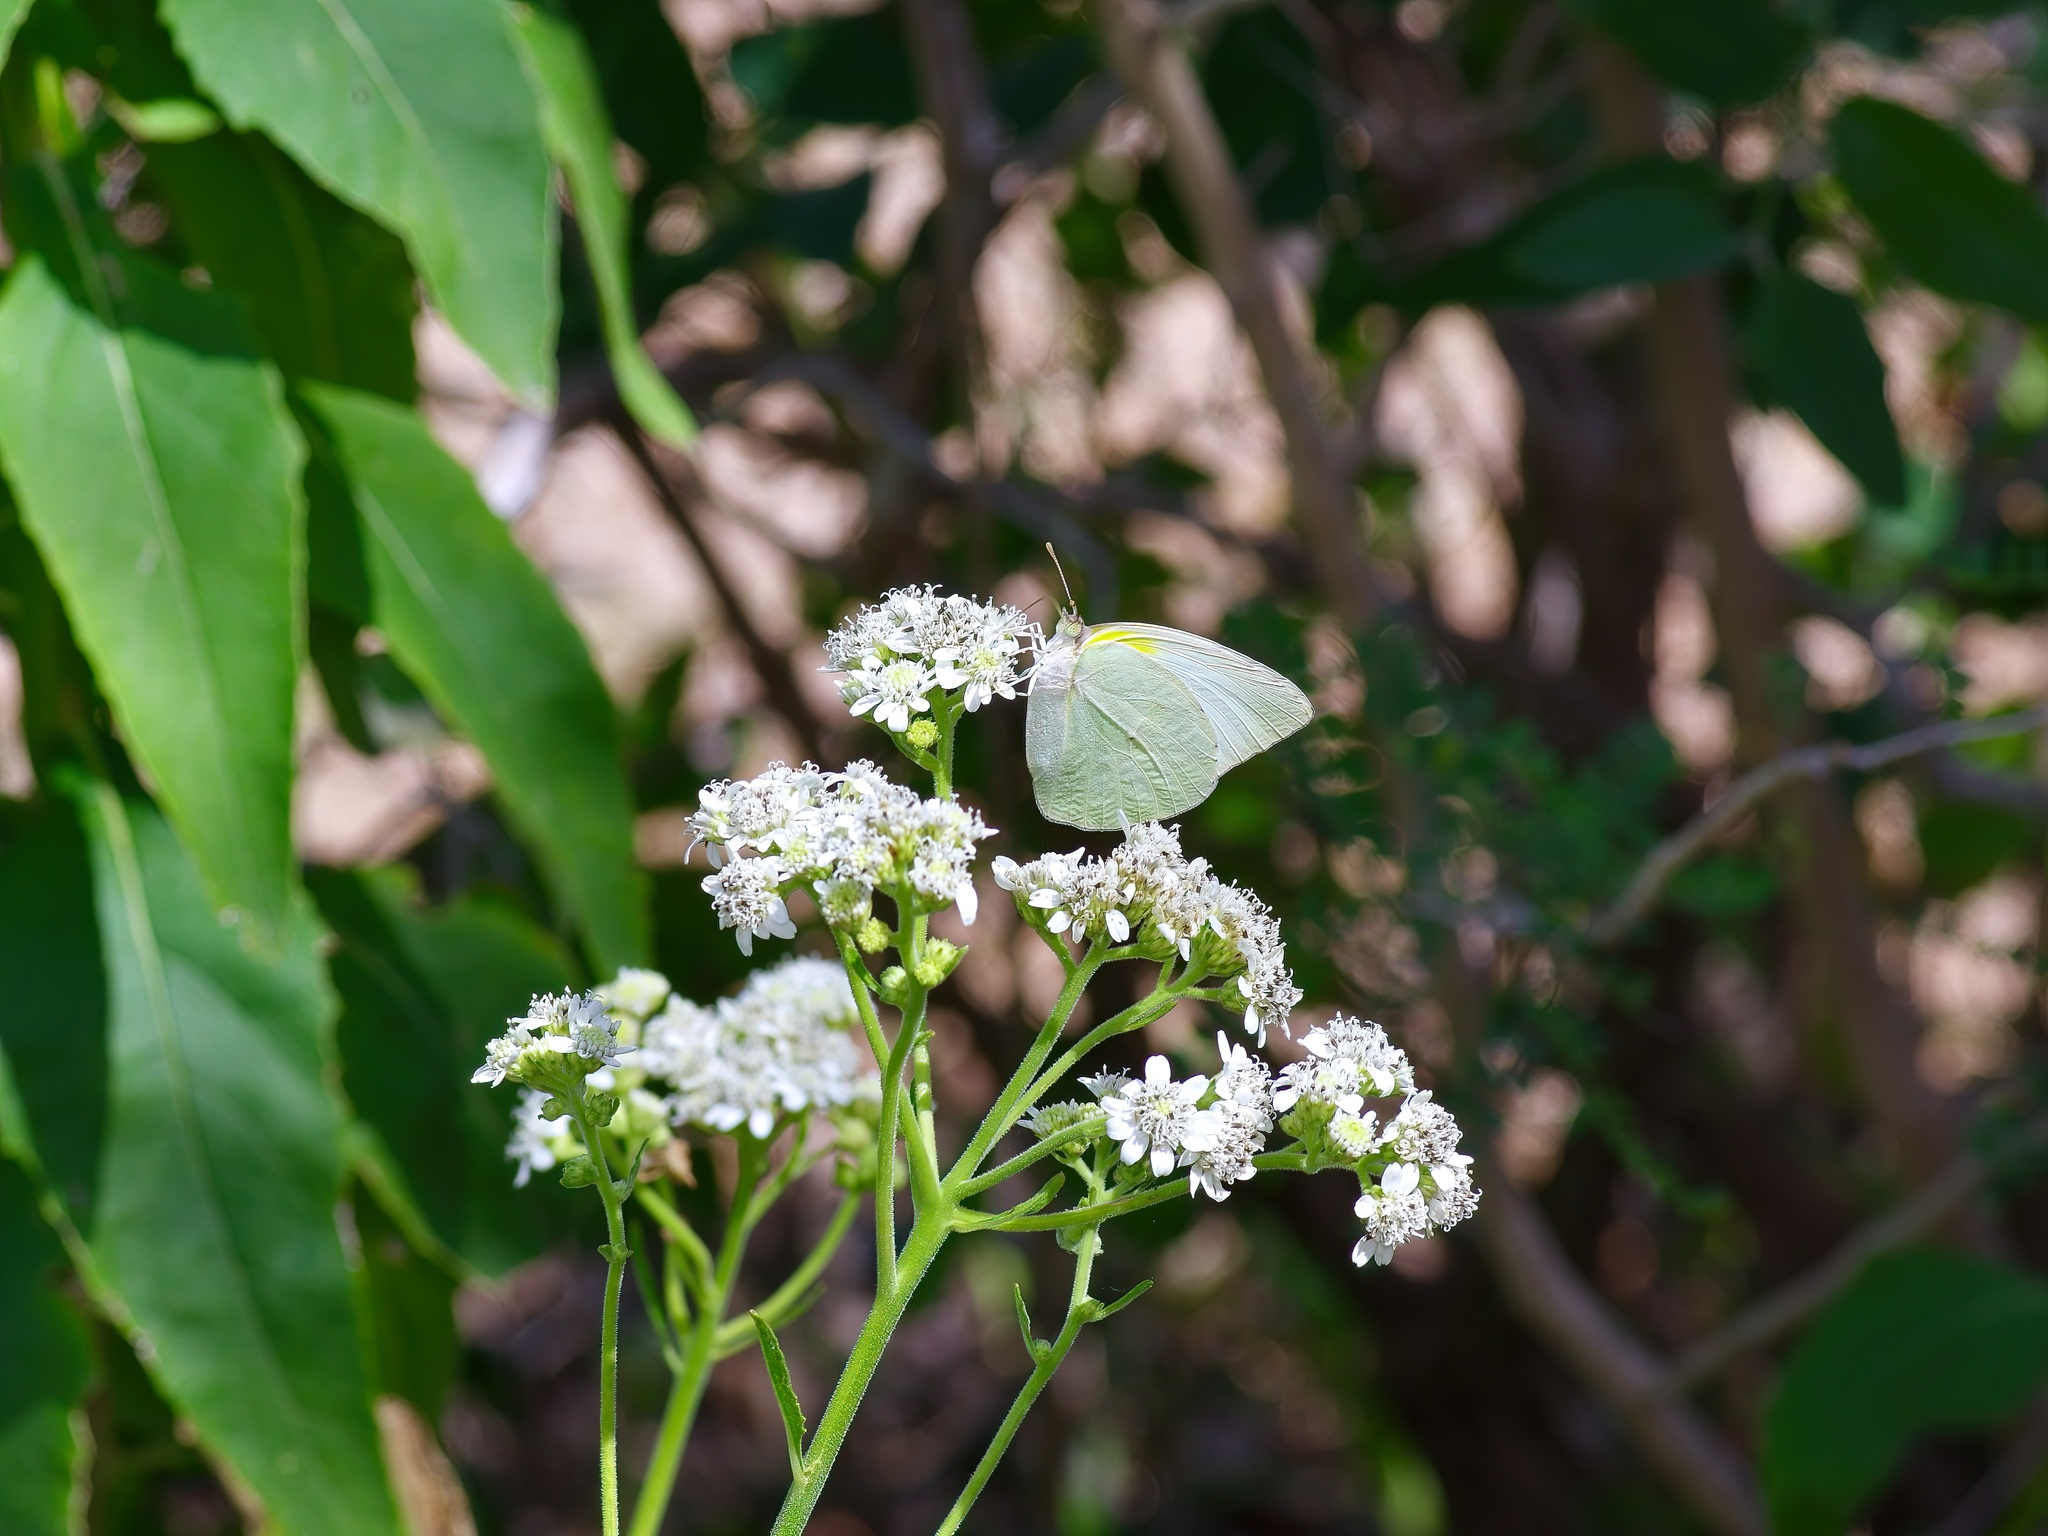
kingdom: Animalia
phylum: Arthropoda
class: Insecta
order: Lepidoptera
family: Pieridae
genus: Kricogonia
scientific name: Kricogonia lyside
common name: Guayacan sulphur,
